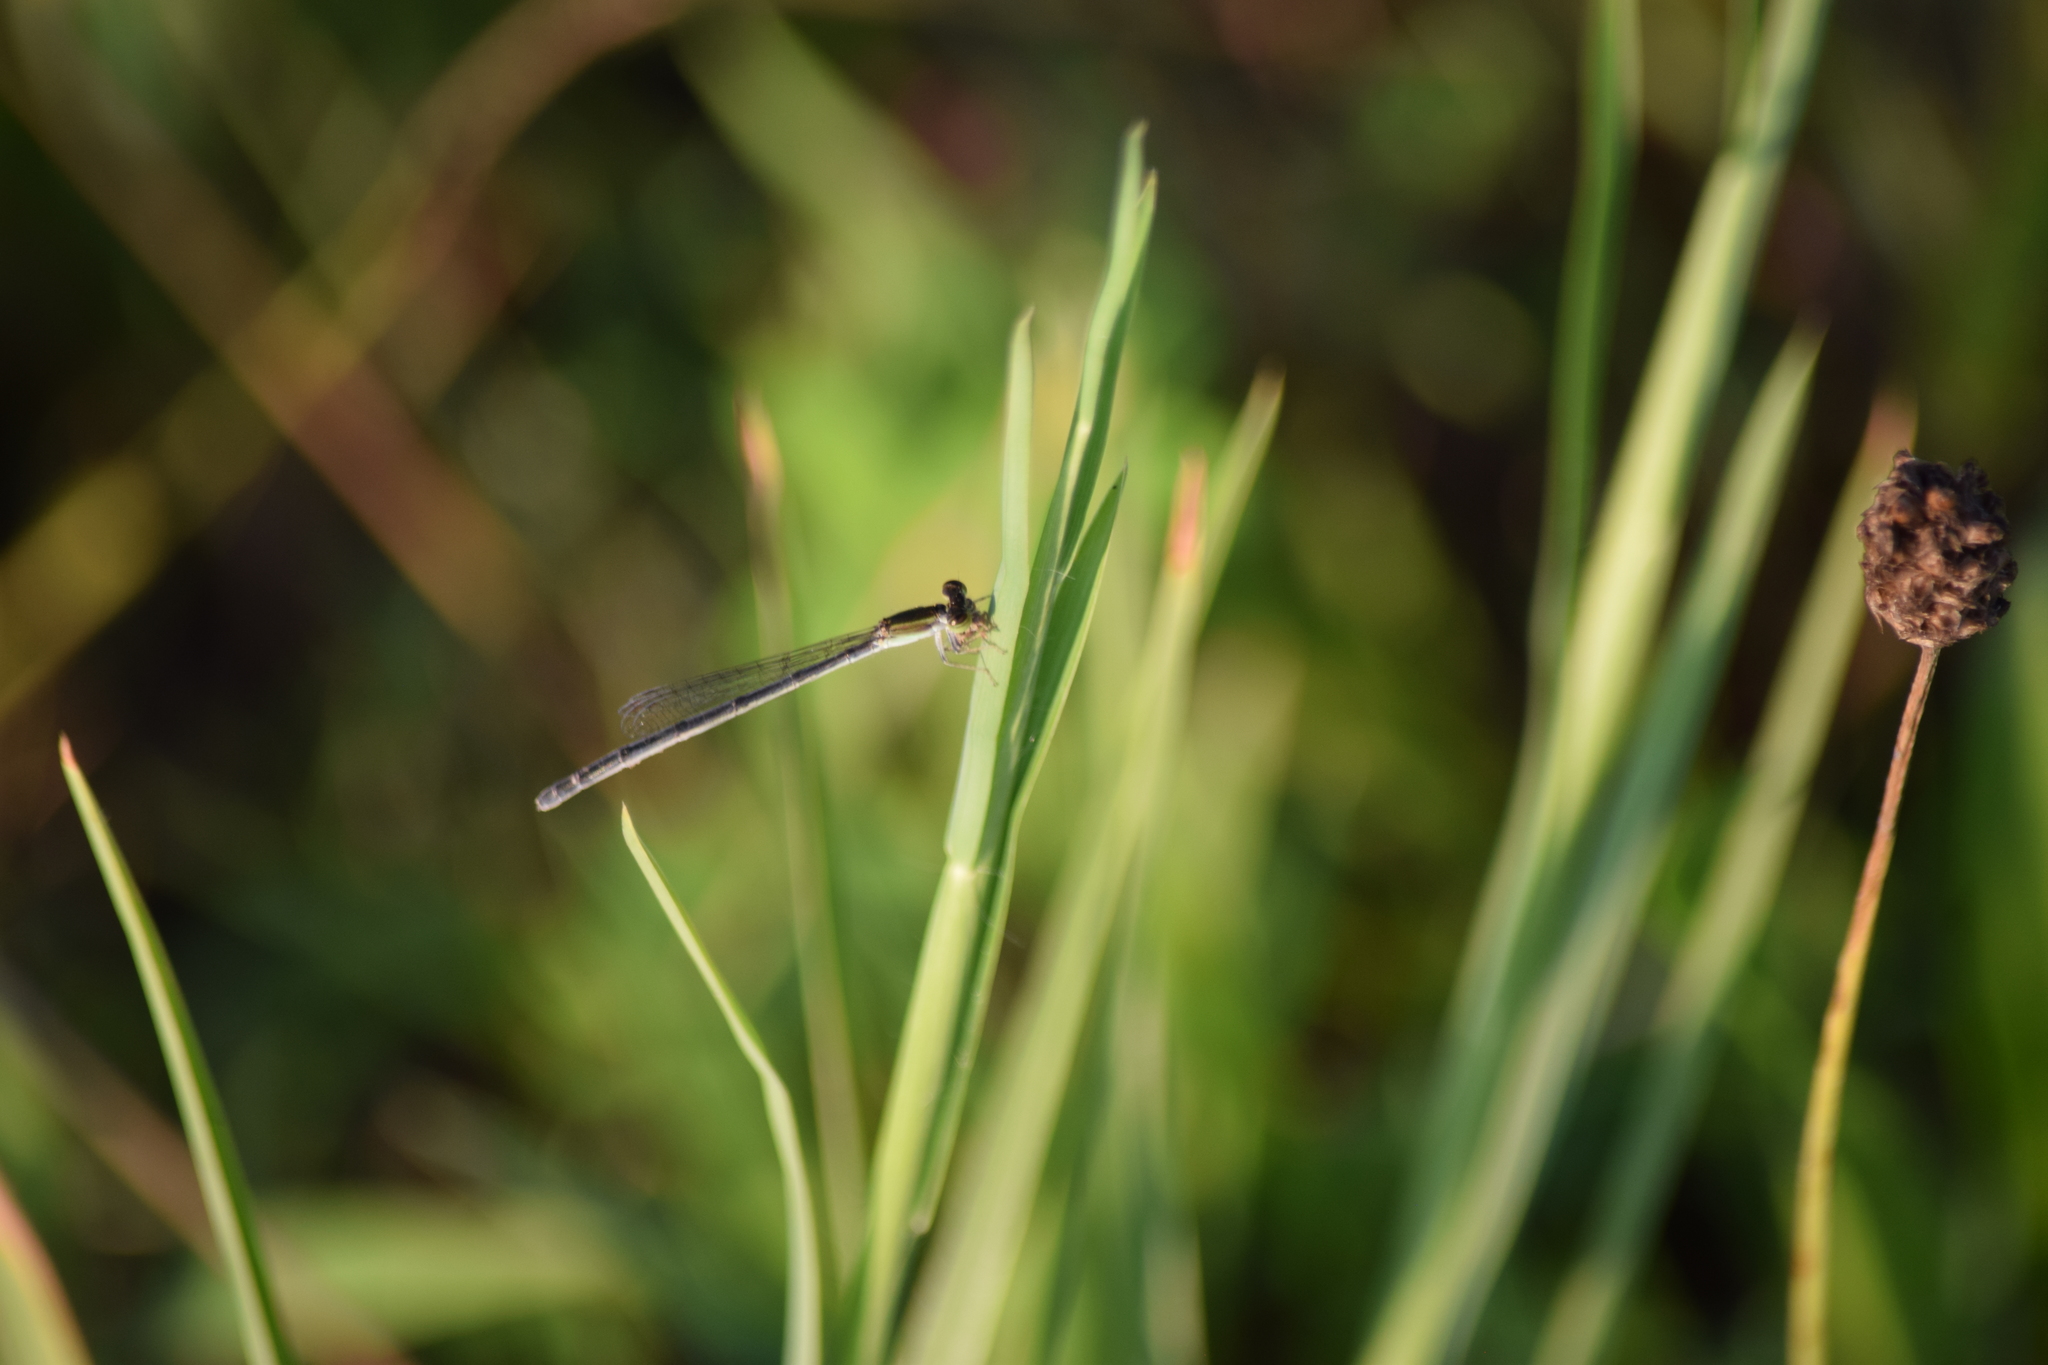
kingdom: Animalia
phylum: Arthropoda
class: Insecta
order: Odonata
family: Coenagrionidae
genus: Ischnura
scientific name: Ischnura hastata
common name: Citrine forktail
